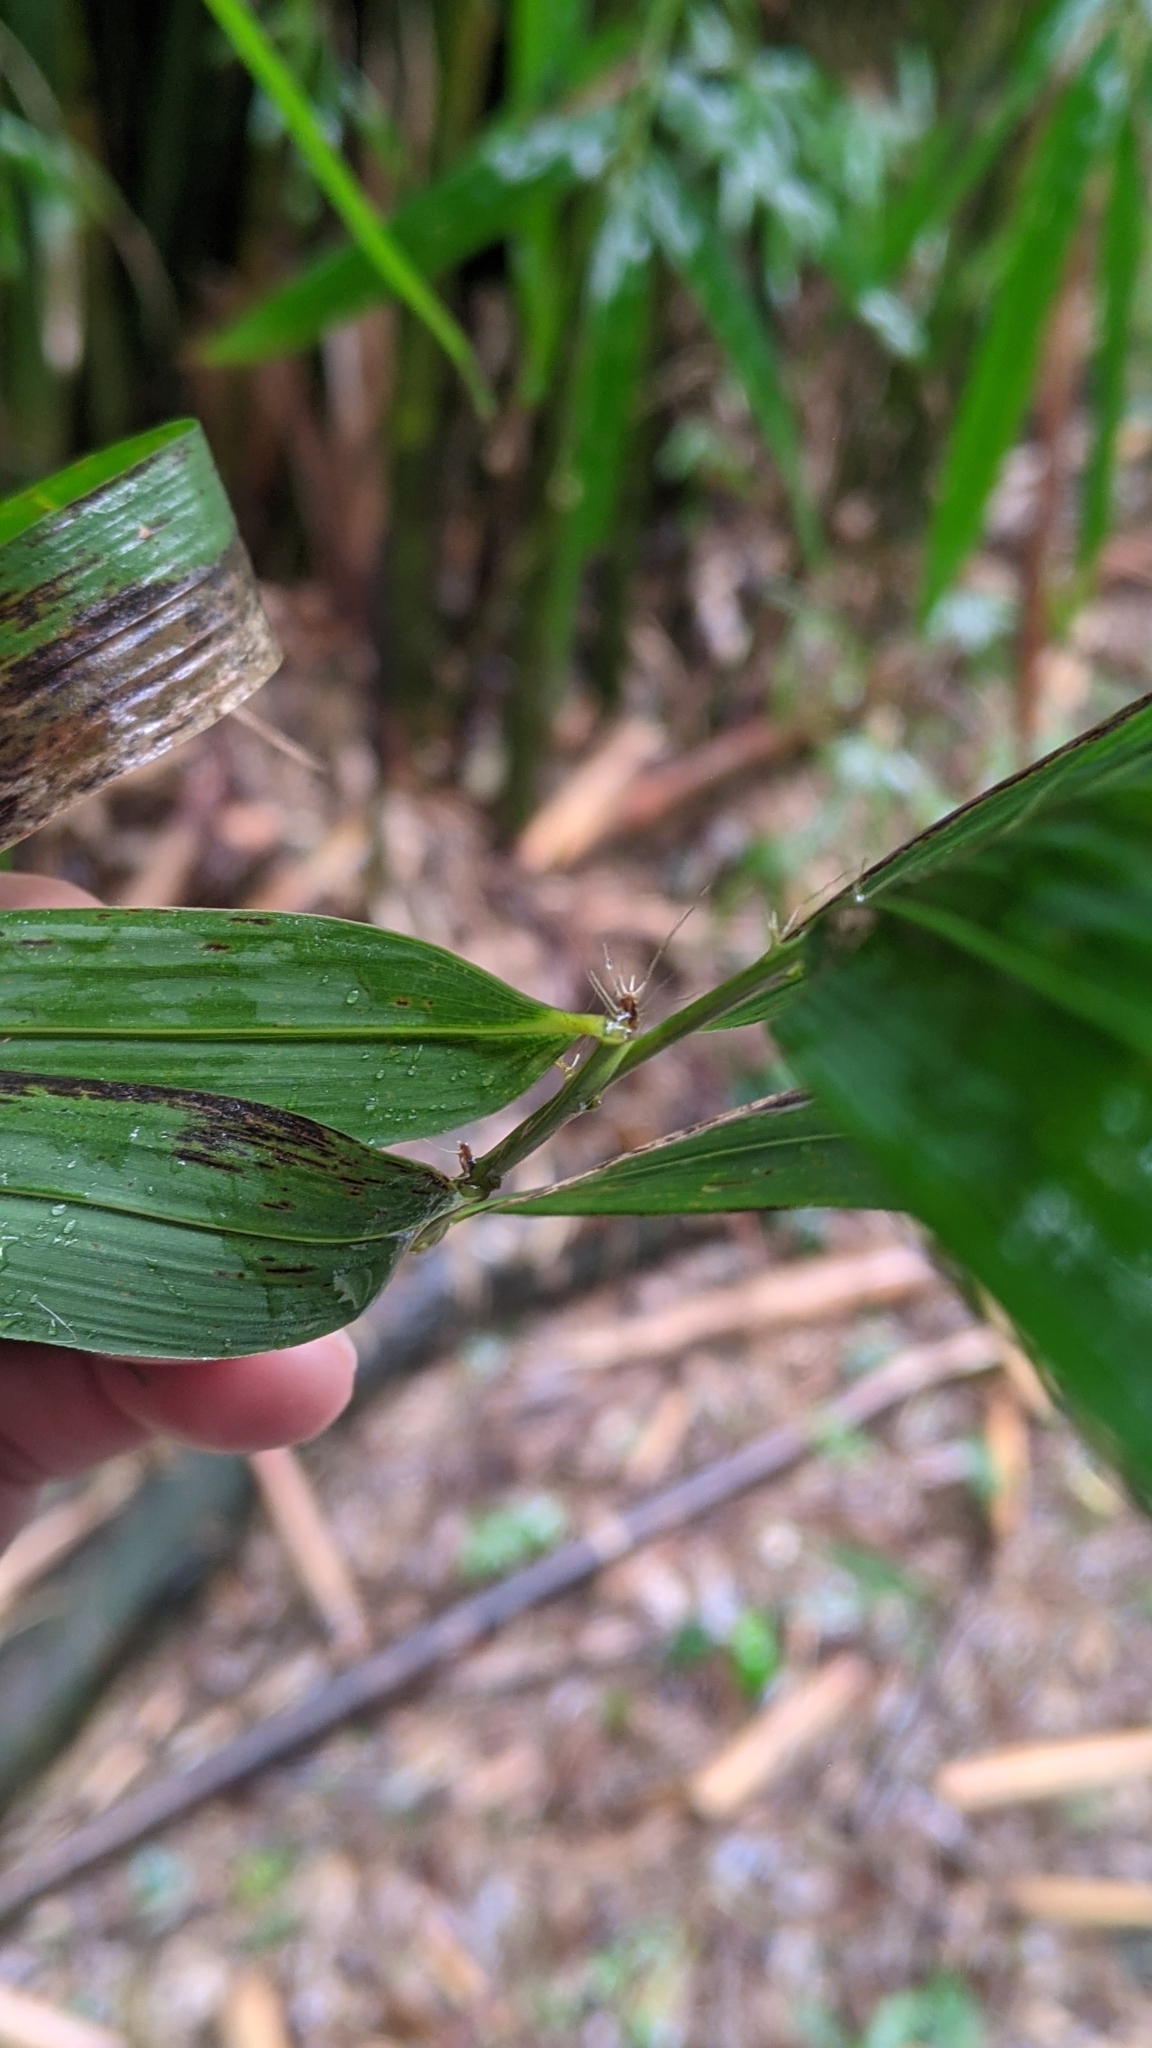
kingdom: Plantae
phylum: Tracheophyta
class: Liliopsida
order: Poales
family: Poaceae
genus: Bambusa
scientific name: Bambusa pachinensis
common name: Pachi bamboo
